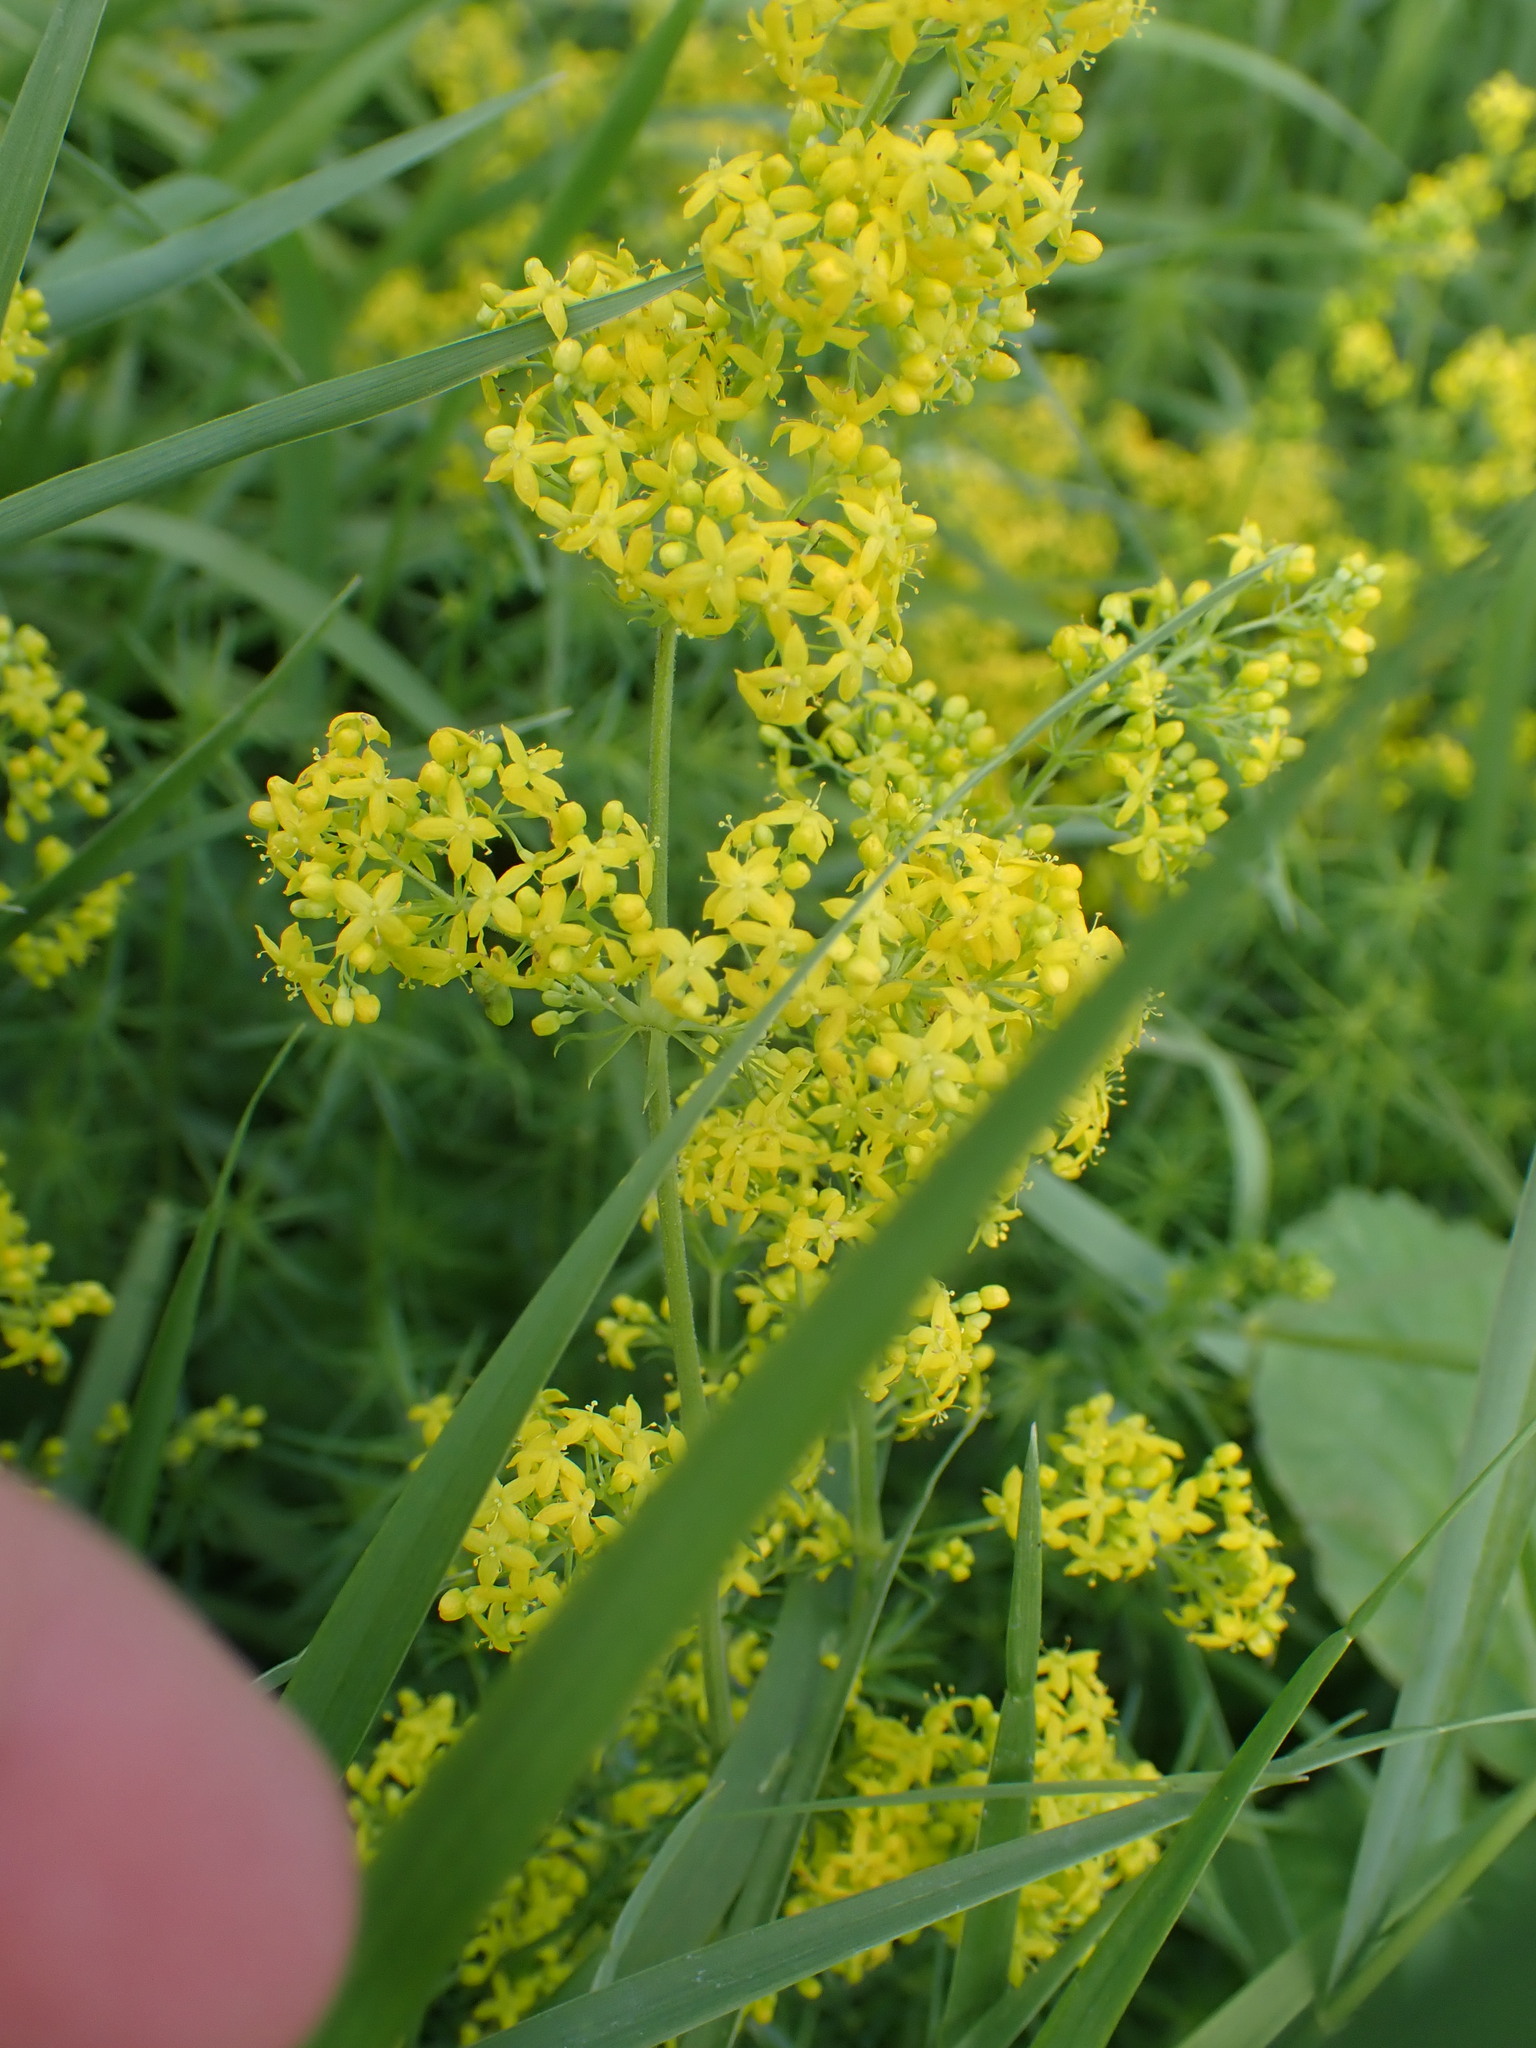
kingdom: Plantae
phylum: Tracheophyta
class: Magnoliopsida
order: Gentianales
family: Rubiaceae
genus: Galium
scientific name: Galium verum
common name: Lady's bedstraw
